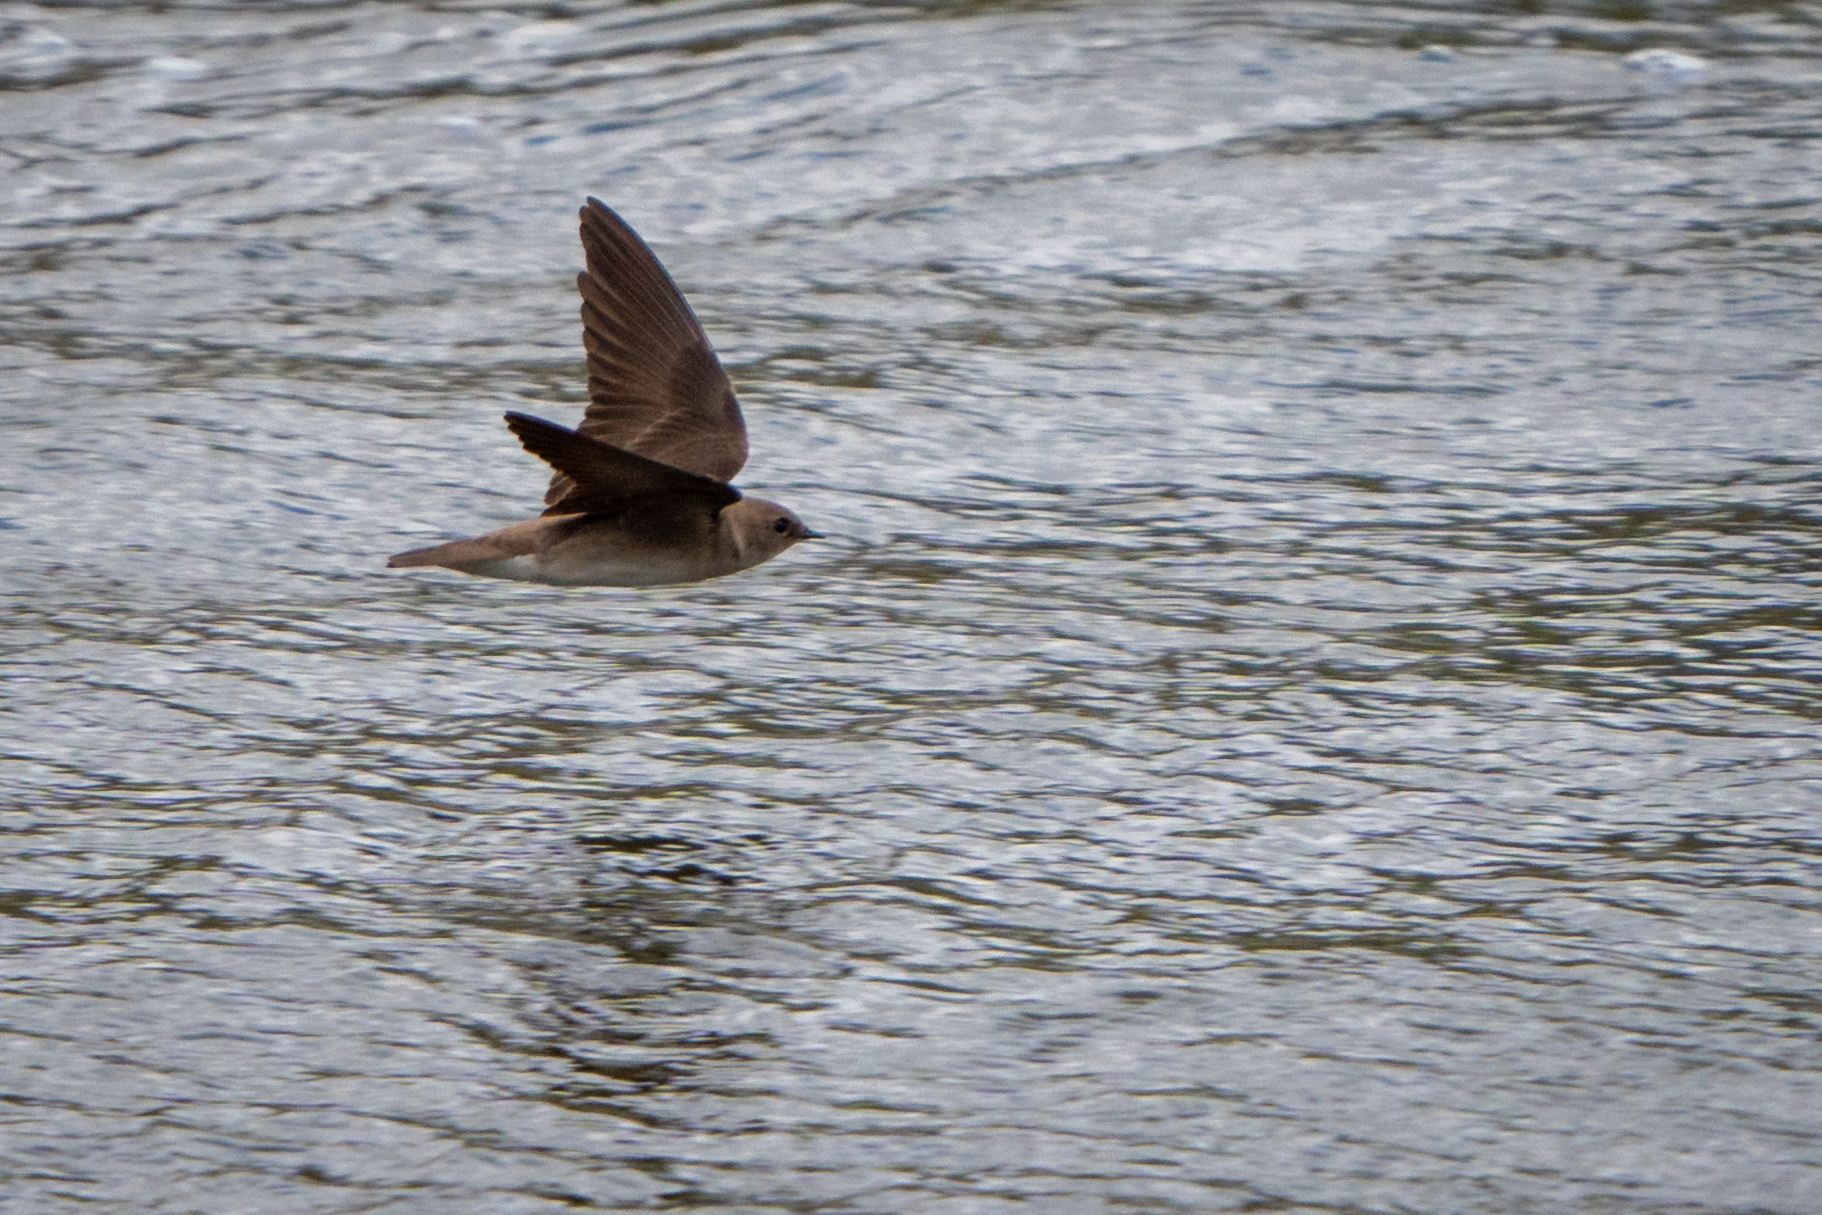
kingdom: Animalia
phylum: Chordata
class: Aves
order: Passeriformes
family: Hirundinidae
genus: Stelgidopteryx
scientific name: Stelgidopteryx serripennis
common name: Northern rough-winged swallow
